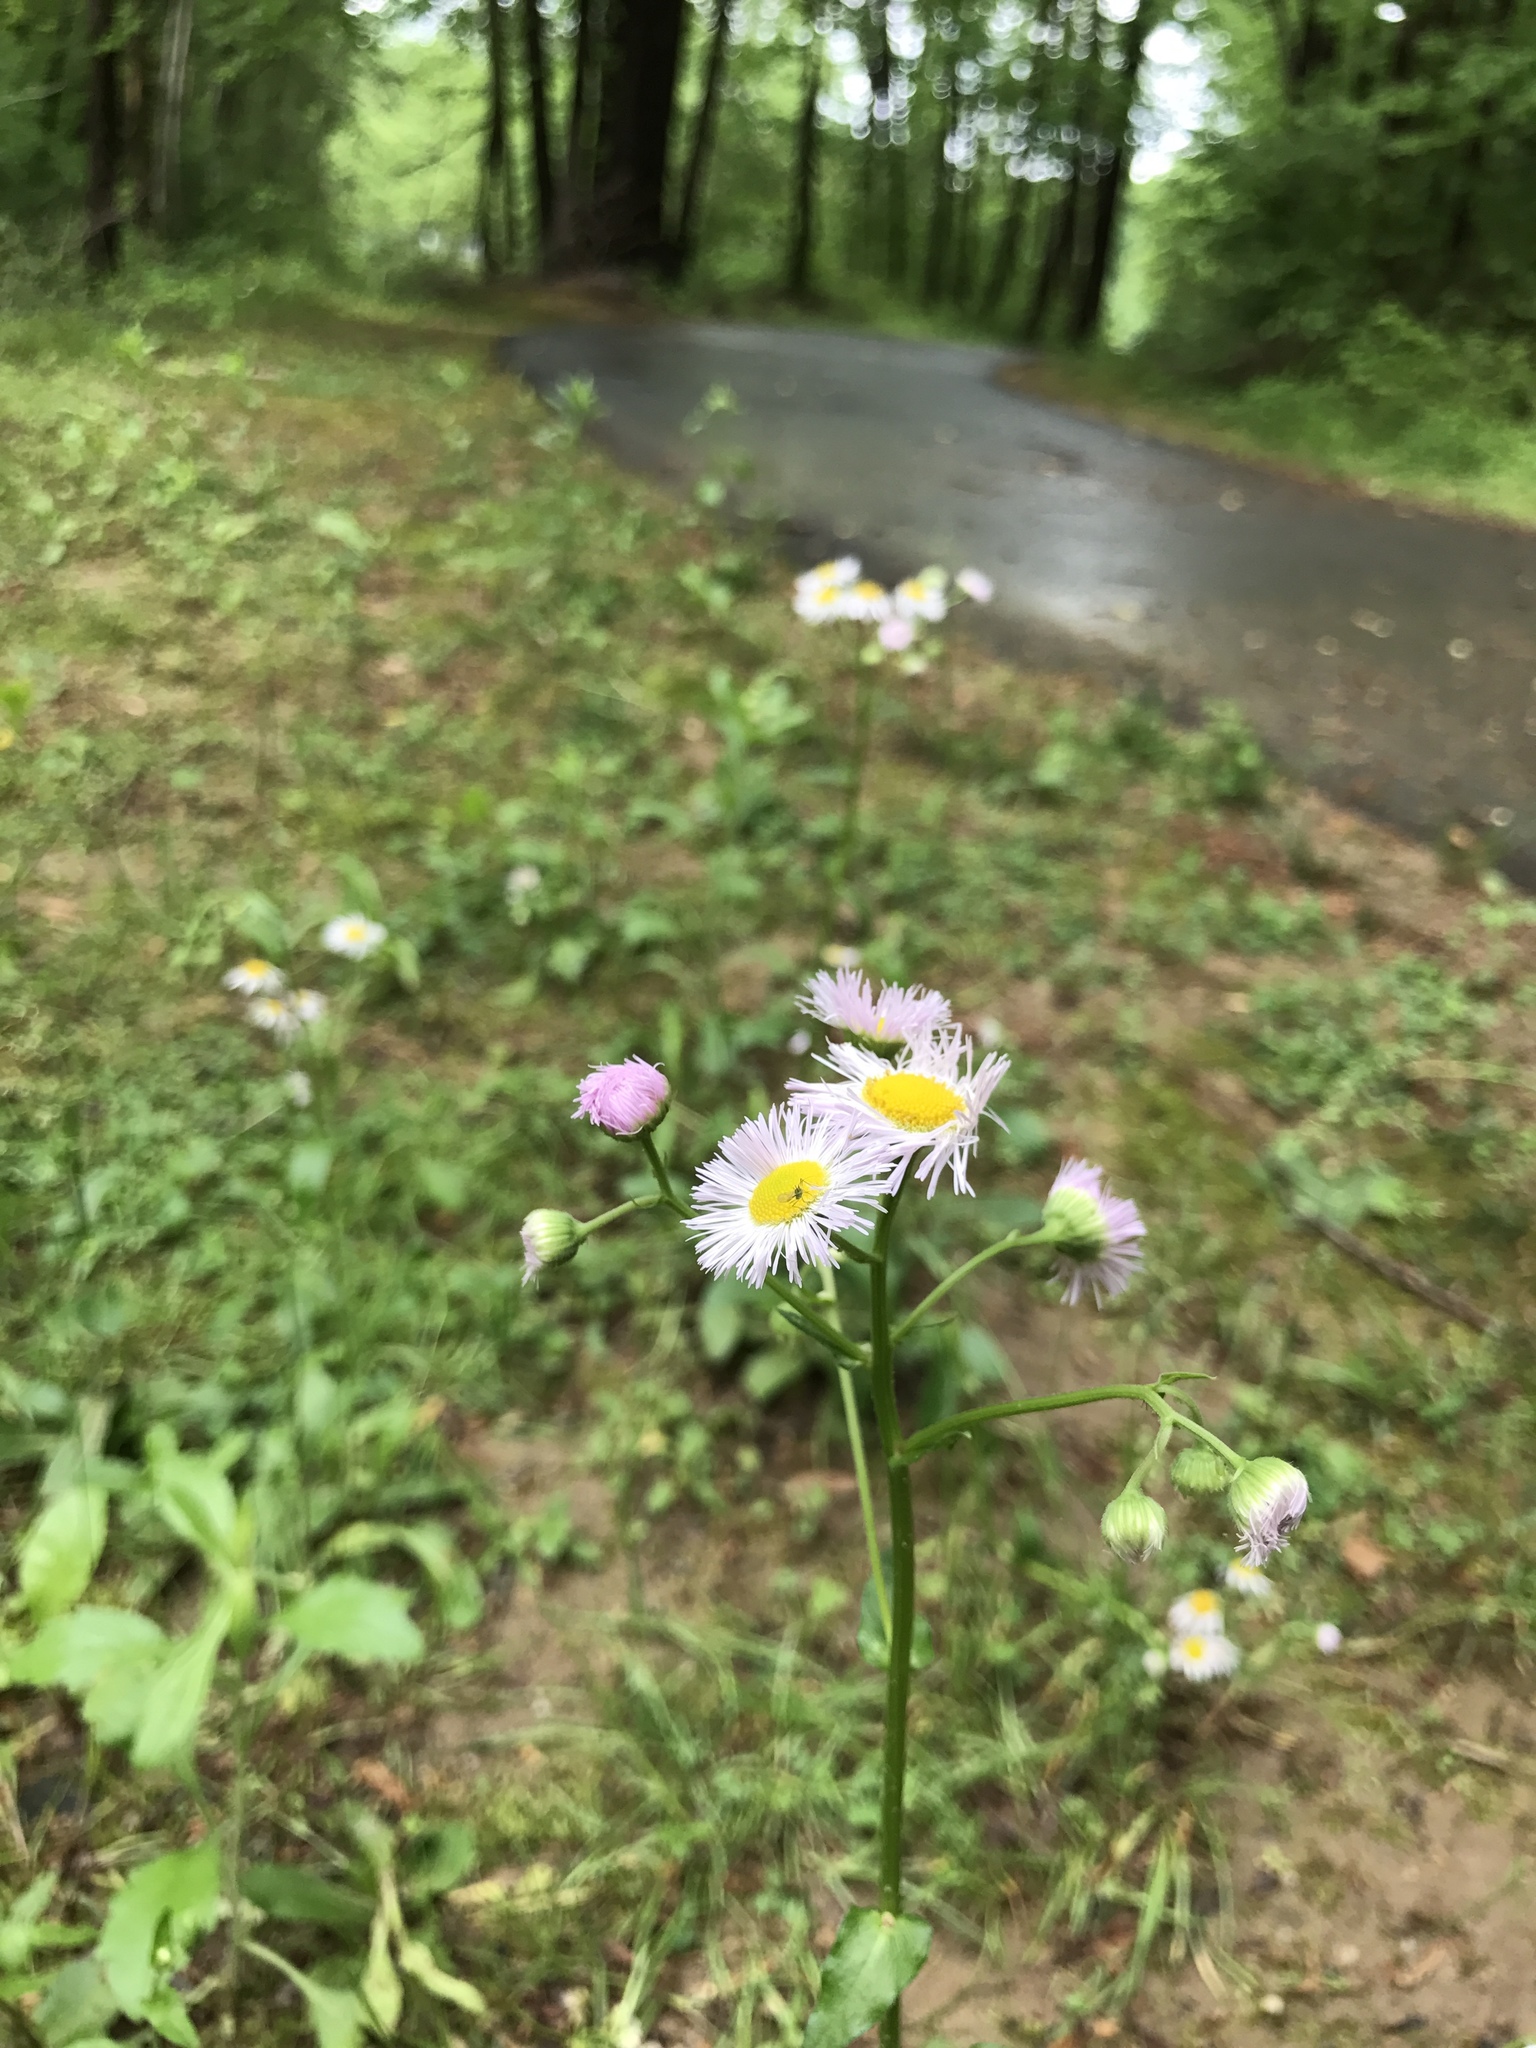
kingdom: Plantae
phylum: Tracheophyta
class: Magnoliopsida
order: Asterales
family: Asteraceae
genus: Erigeron
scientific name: Erigeron philadelphicus
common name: Robin's-plantain
